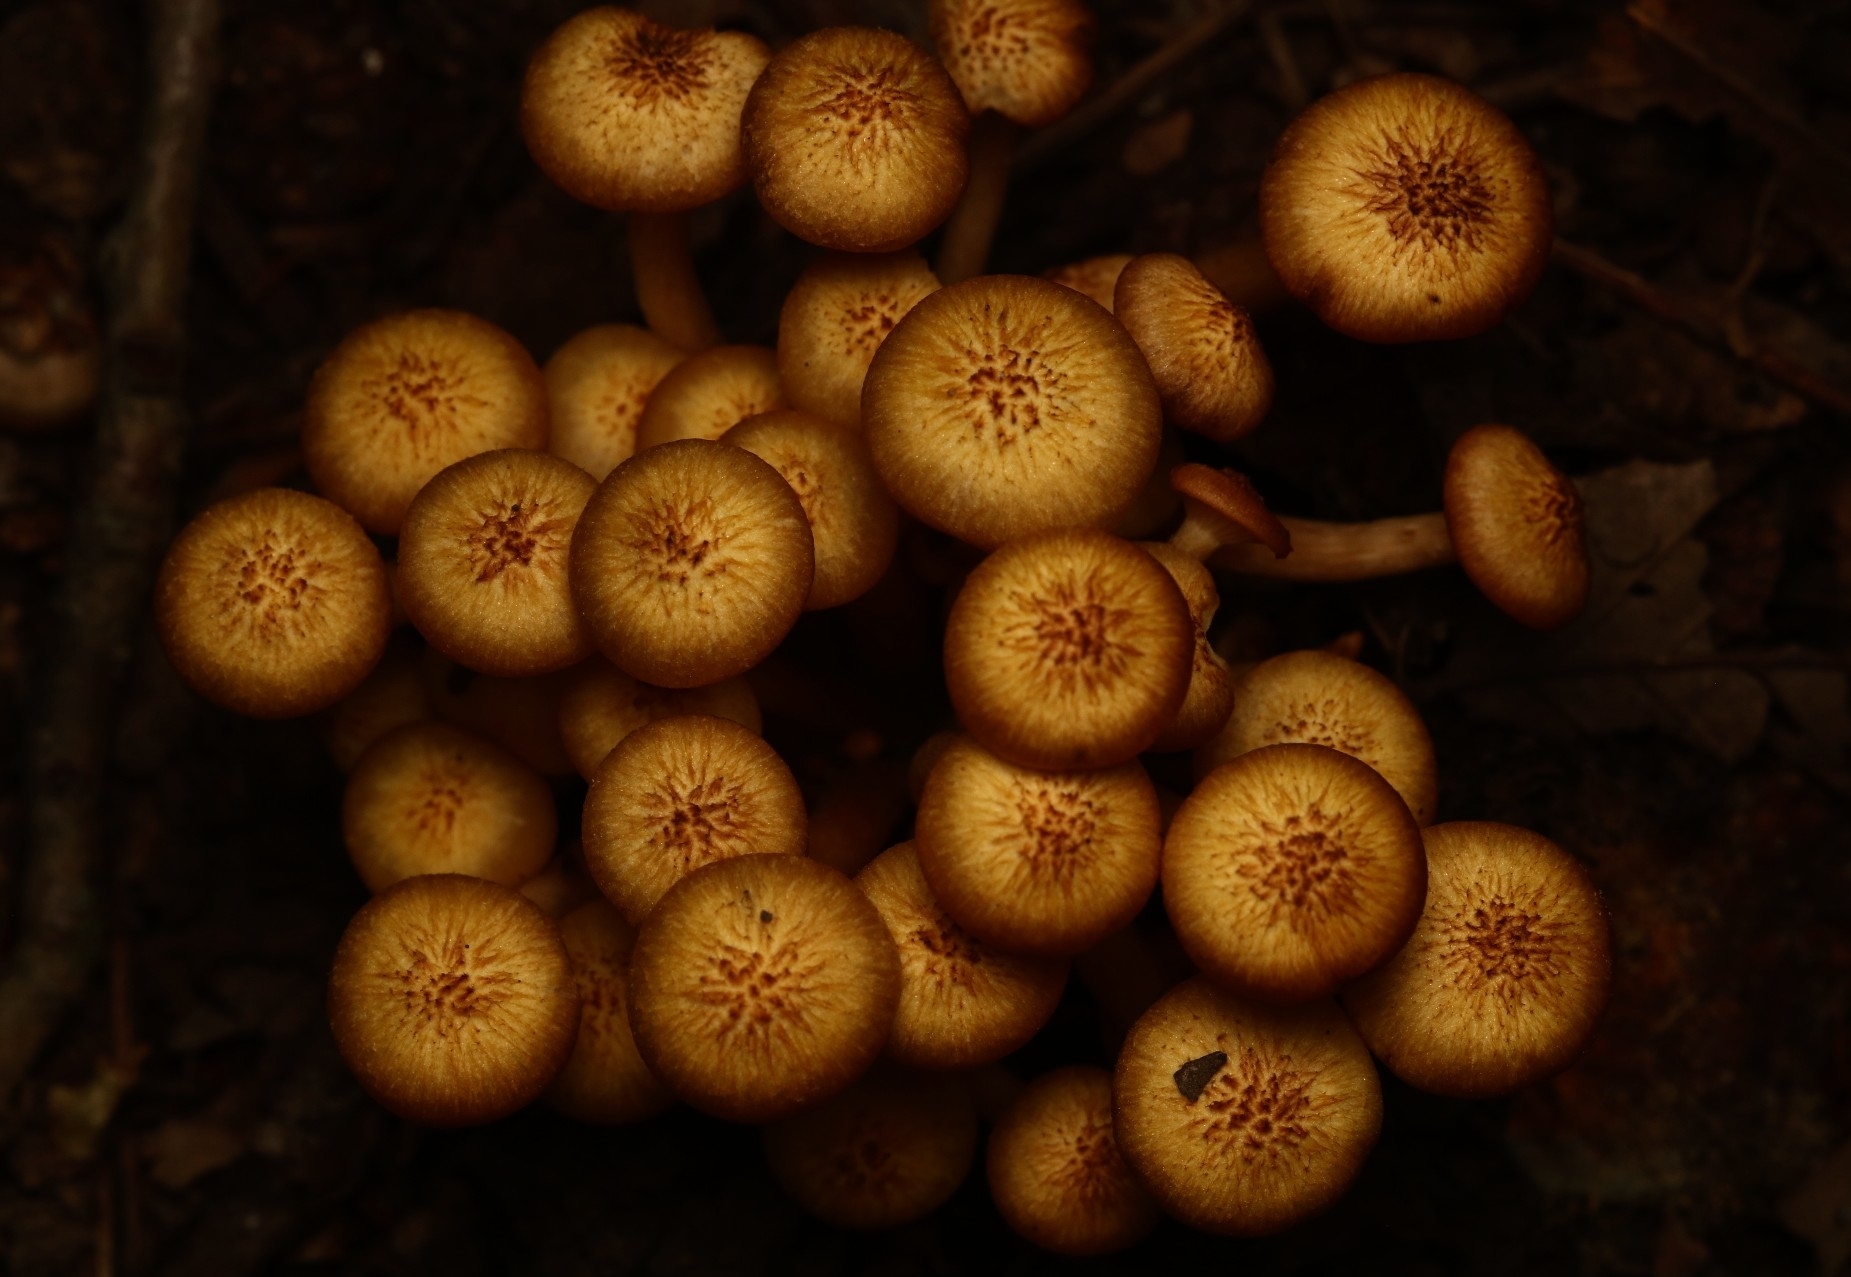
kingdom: Fungi
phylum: Basidiomycota
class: Agaricomycetes
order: Agaricales
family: Physalacriaceae
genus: Desarmillaria
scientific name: Desarmillaria caespitosa
